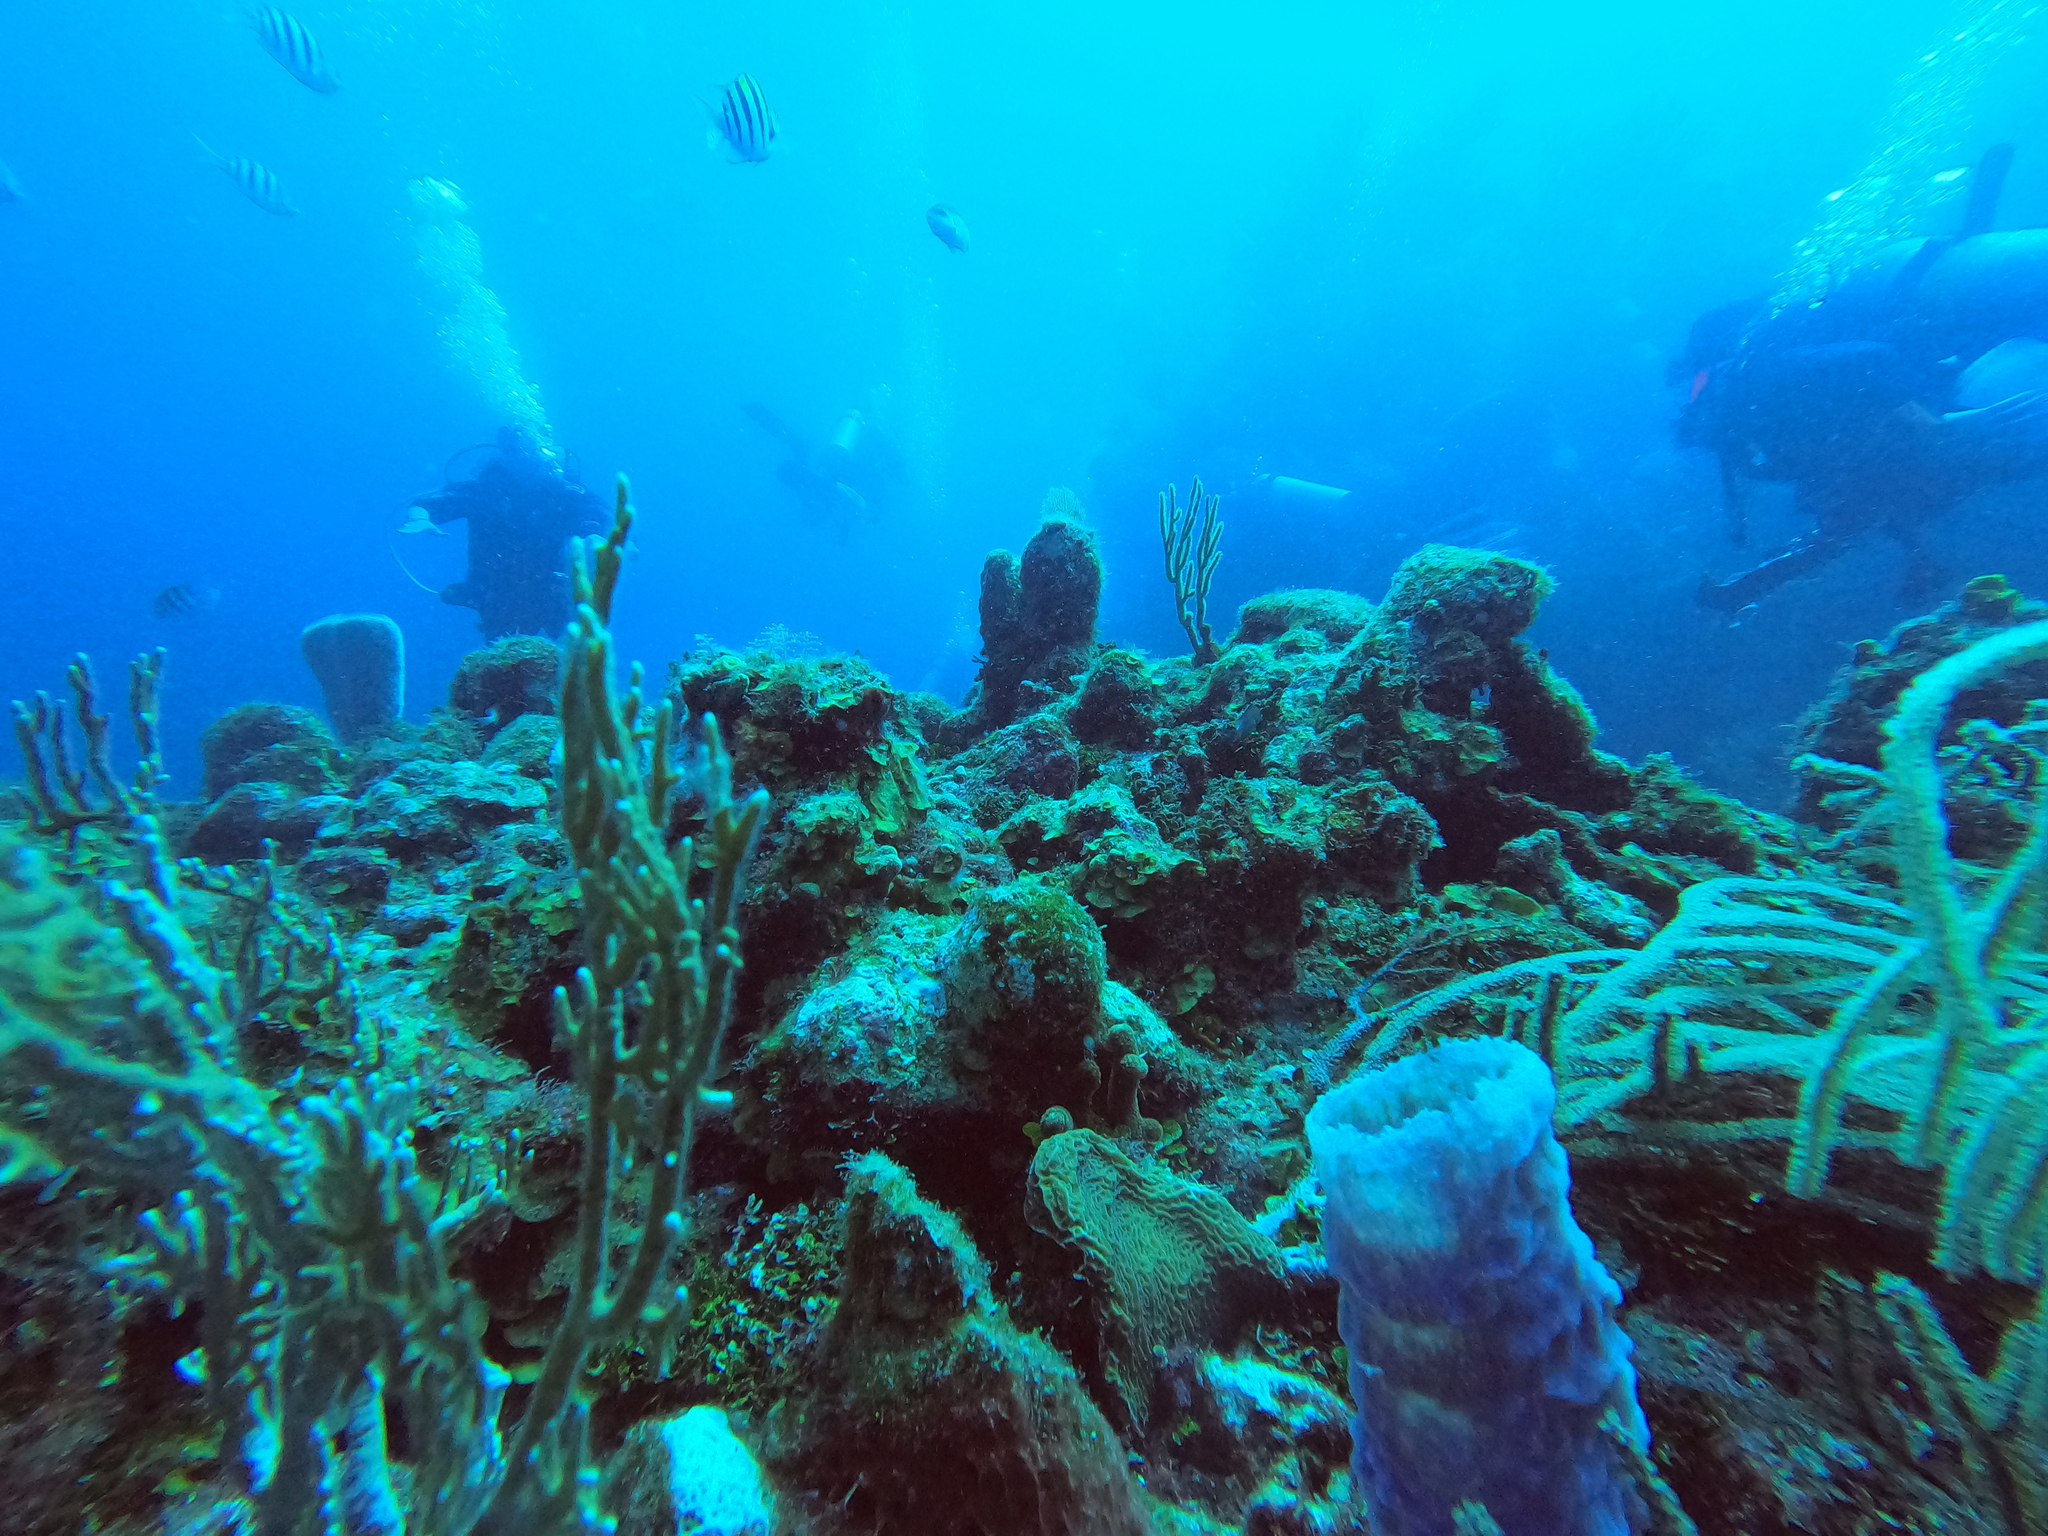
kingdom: Animalia
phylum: Porifera
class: Demospongiae
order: Haplosclerida
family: Callyspongiidae
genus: Callyspongia
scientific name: Callyspongia plicifera
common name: Azure vase sponge
